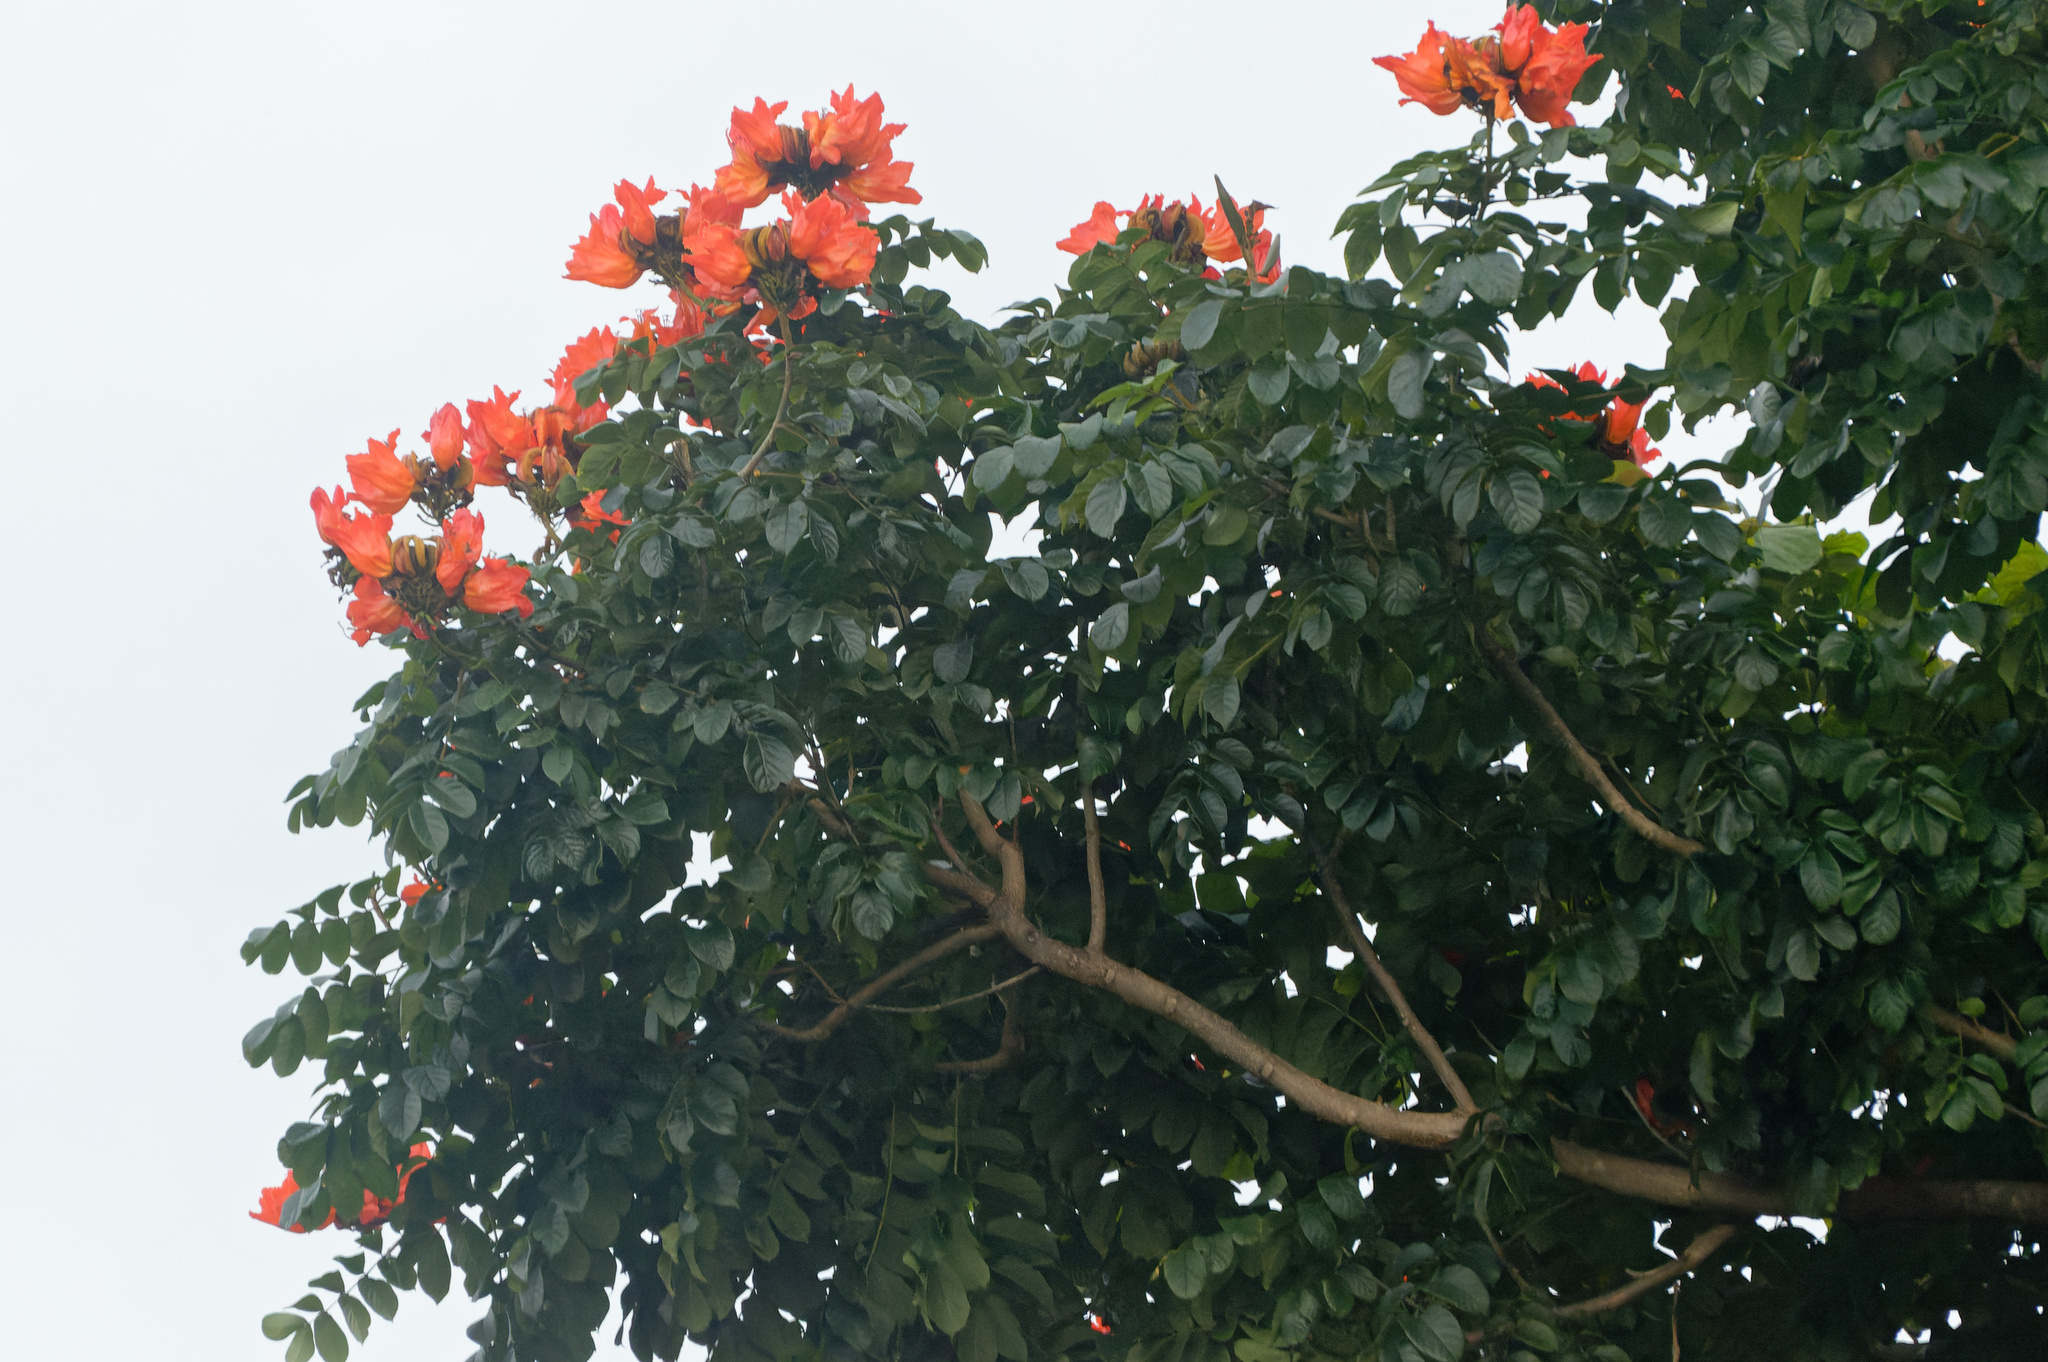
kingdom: Plantae
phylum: Tracheophyta
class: Magnoliopsida
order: Lamiales
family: Bignoniaceae
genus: Spathodea
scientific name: Spathodea campanulata
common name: African tuliptree
